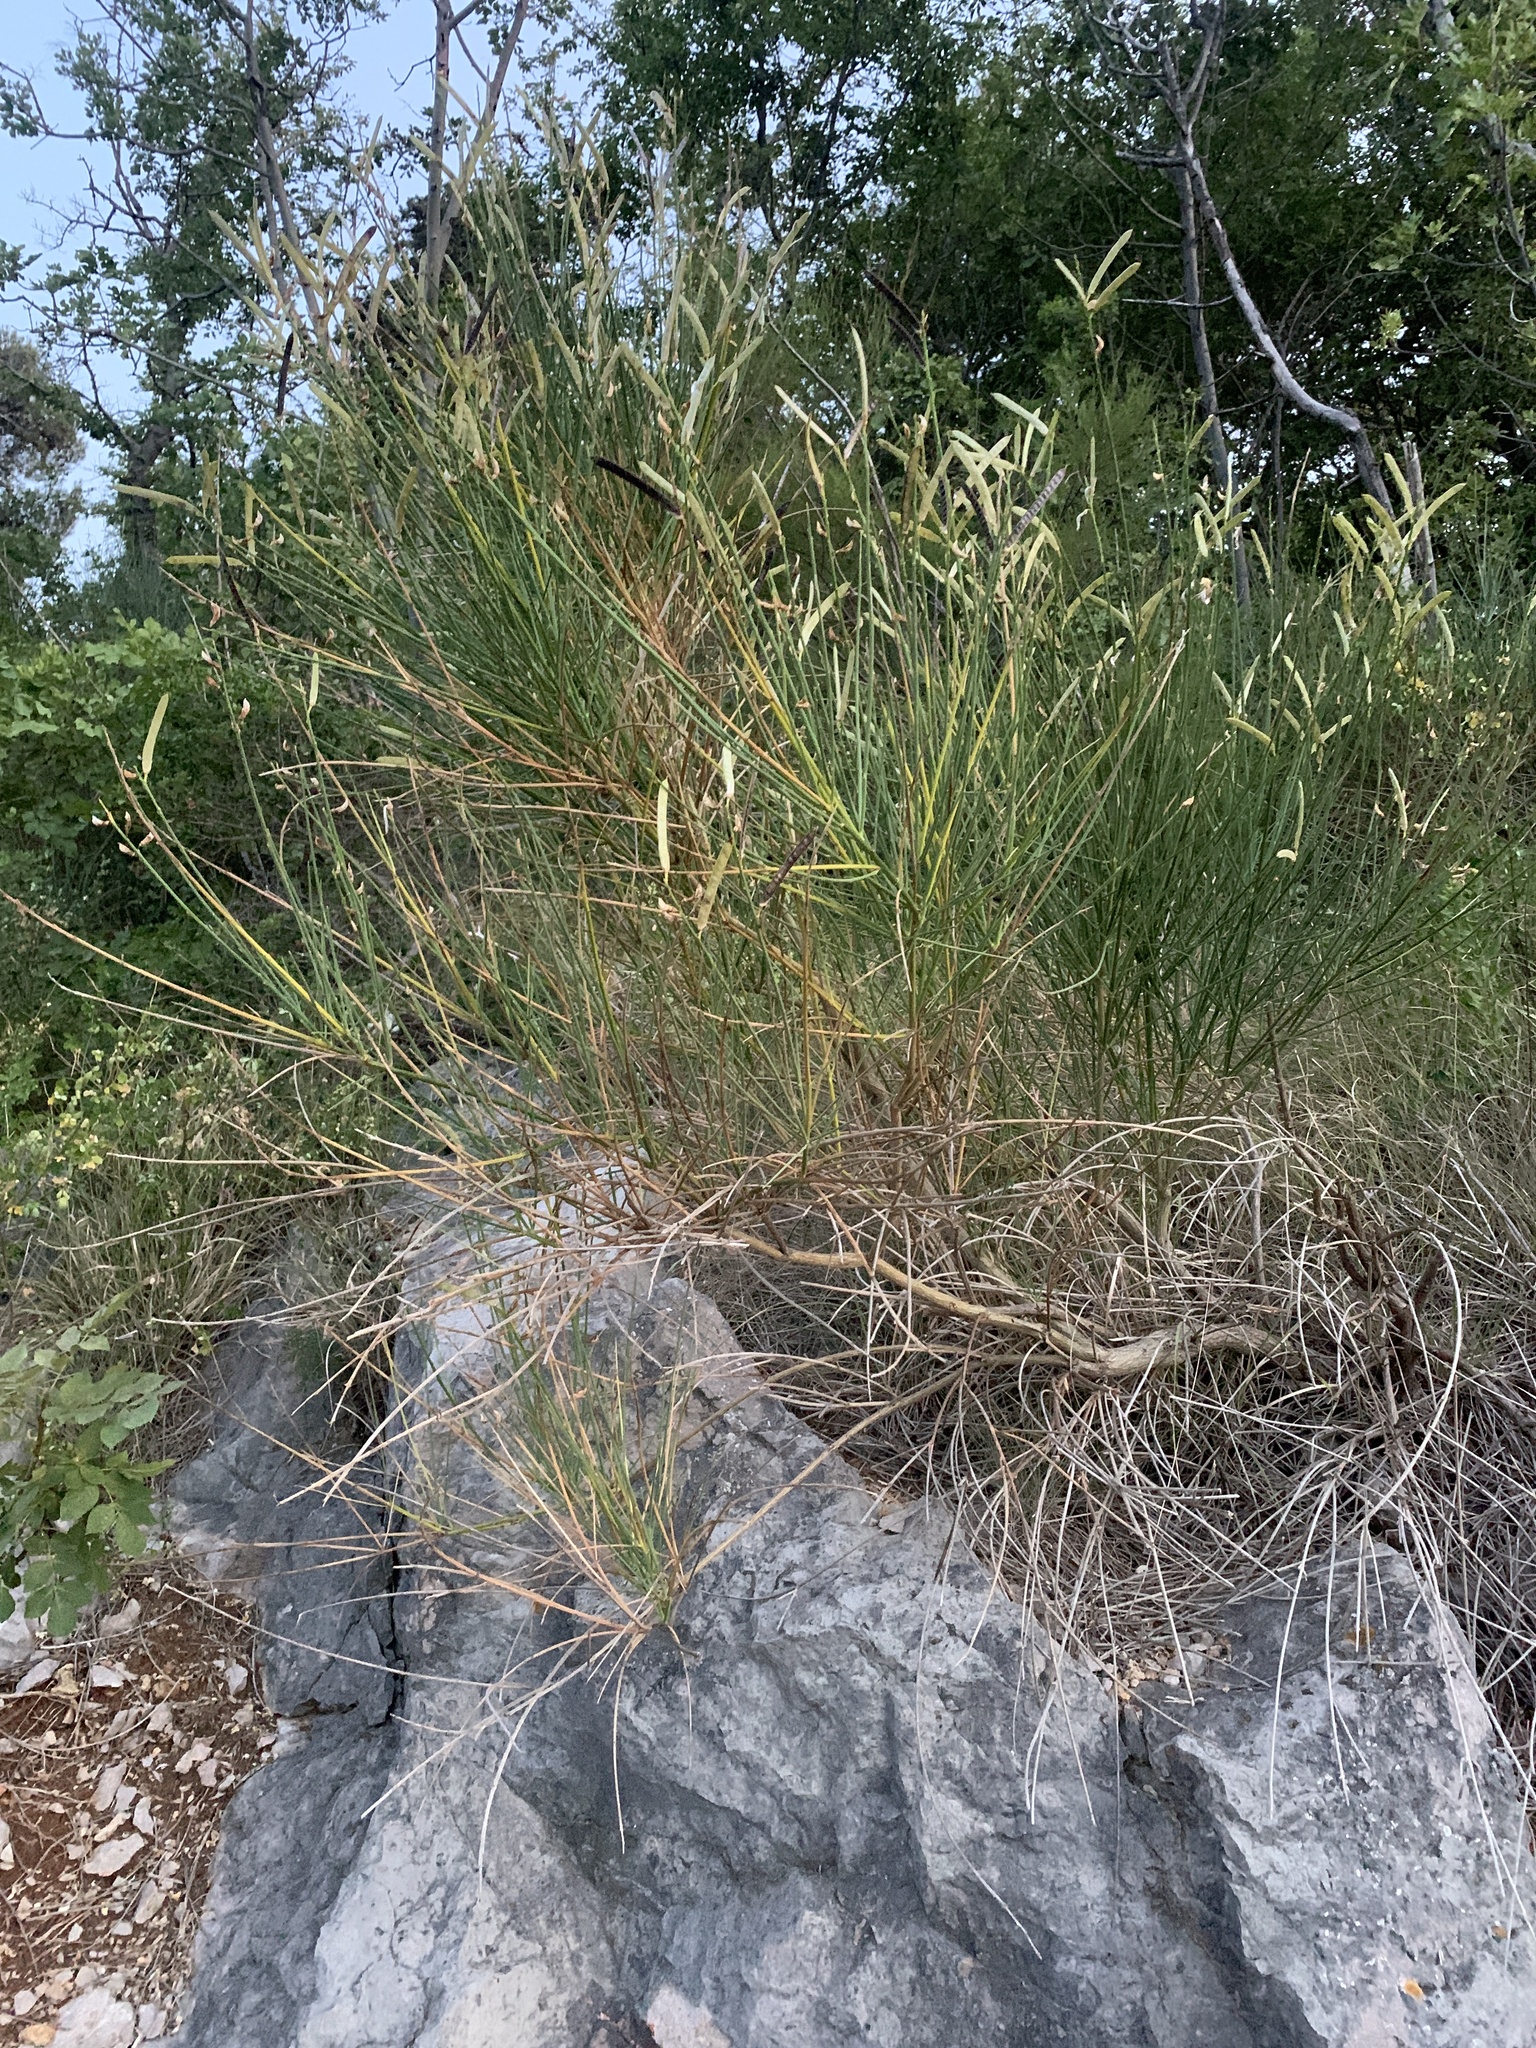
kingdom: Plantae
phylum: Tracheophyta
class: Magnoliopsida
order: Fabales
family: Fabaceae
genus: Spartium
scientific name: Spartium junceum
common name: Spanish broom
